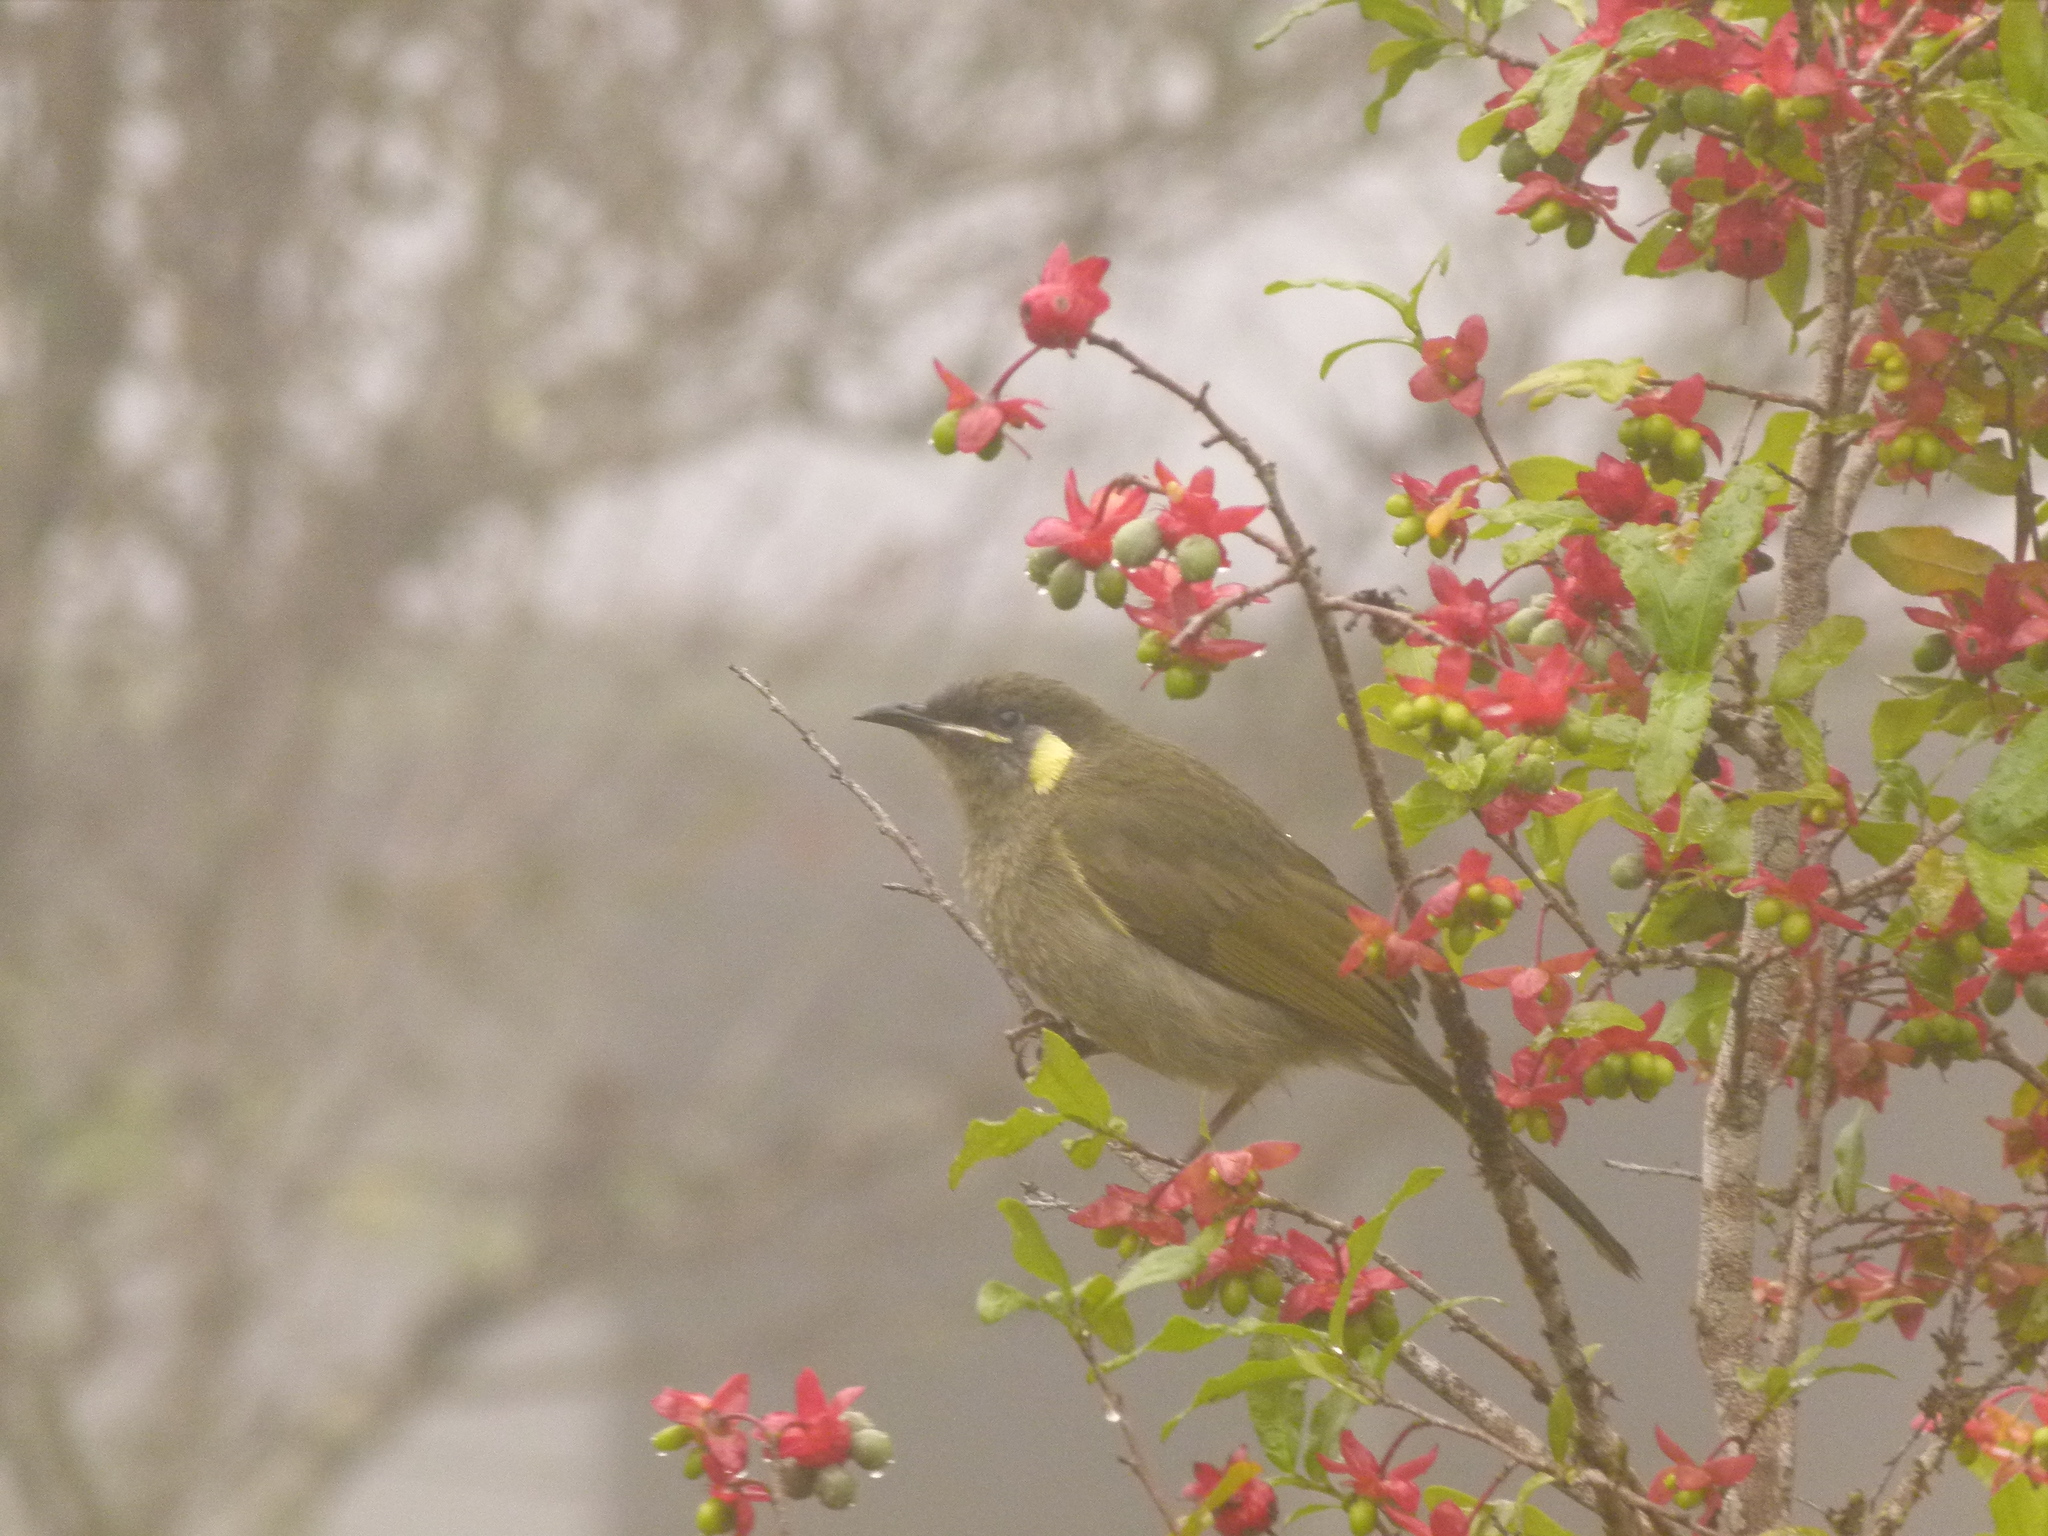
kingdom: Animalia
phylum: Chordata
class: Aves
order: Passeriformes
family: Meliphagidae
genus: Meliphaga
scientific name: Meliphaga notata
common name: Yellow-spotted honeyeater
